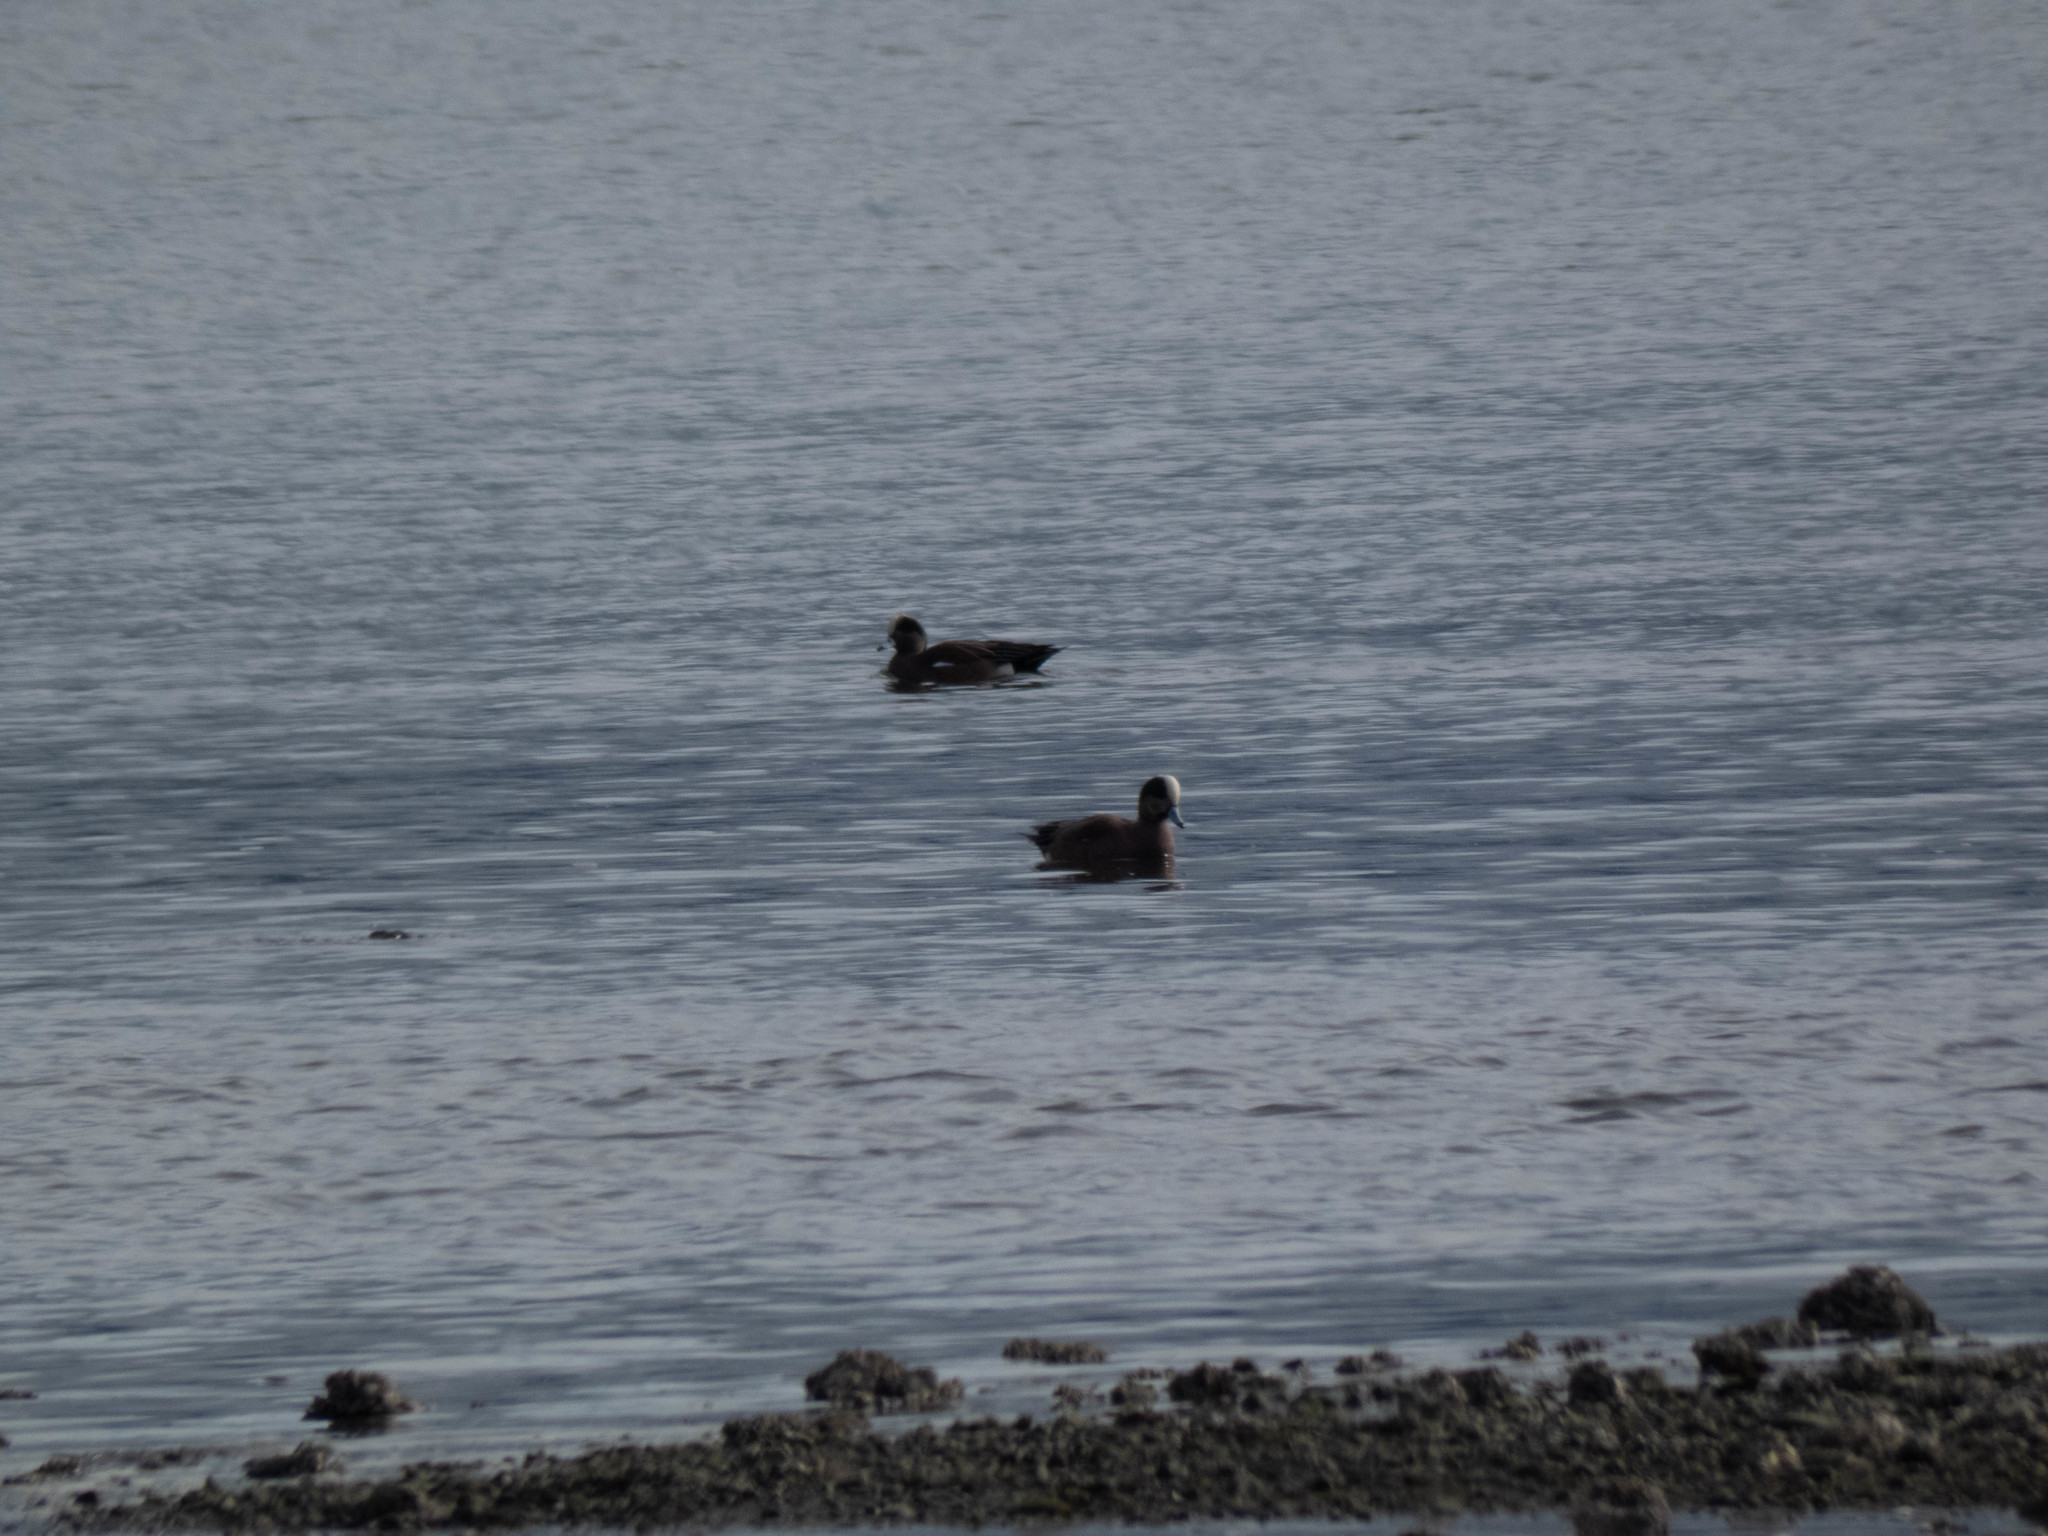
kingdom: Animalia
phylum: Chordata
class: Aves
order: Anseriformes
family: Anatidae
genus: Mareca
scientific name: Mareca americana
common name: American wigeon
